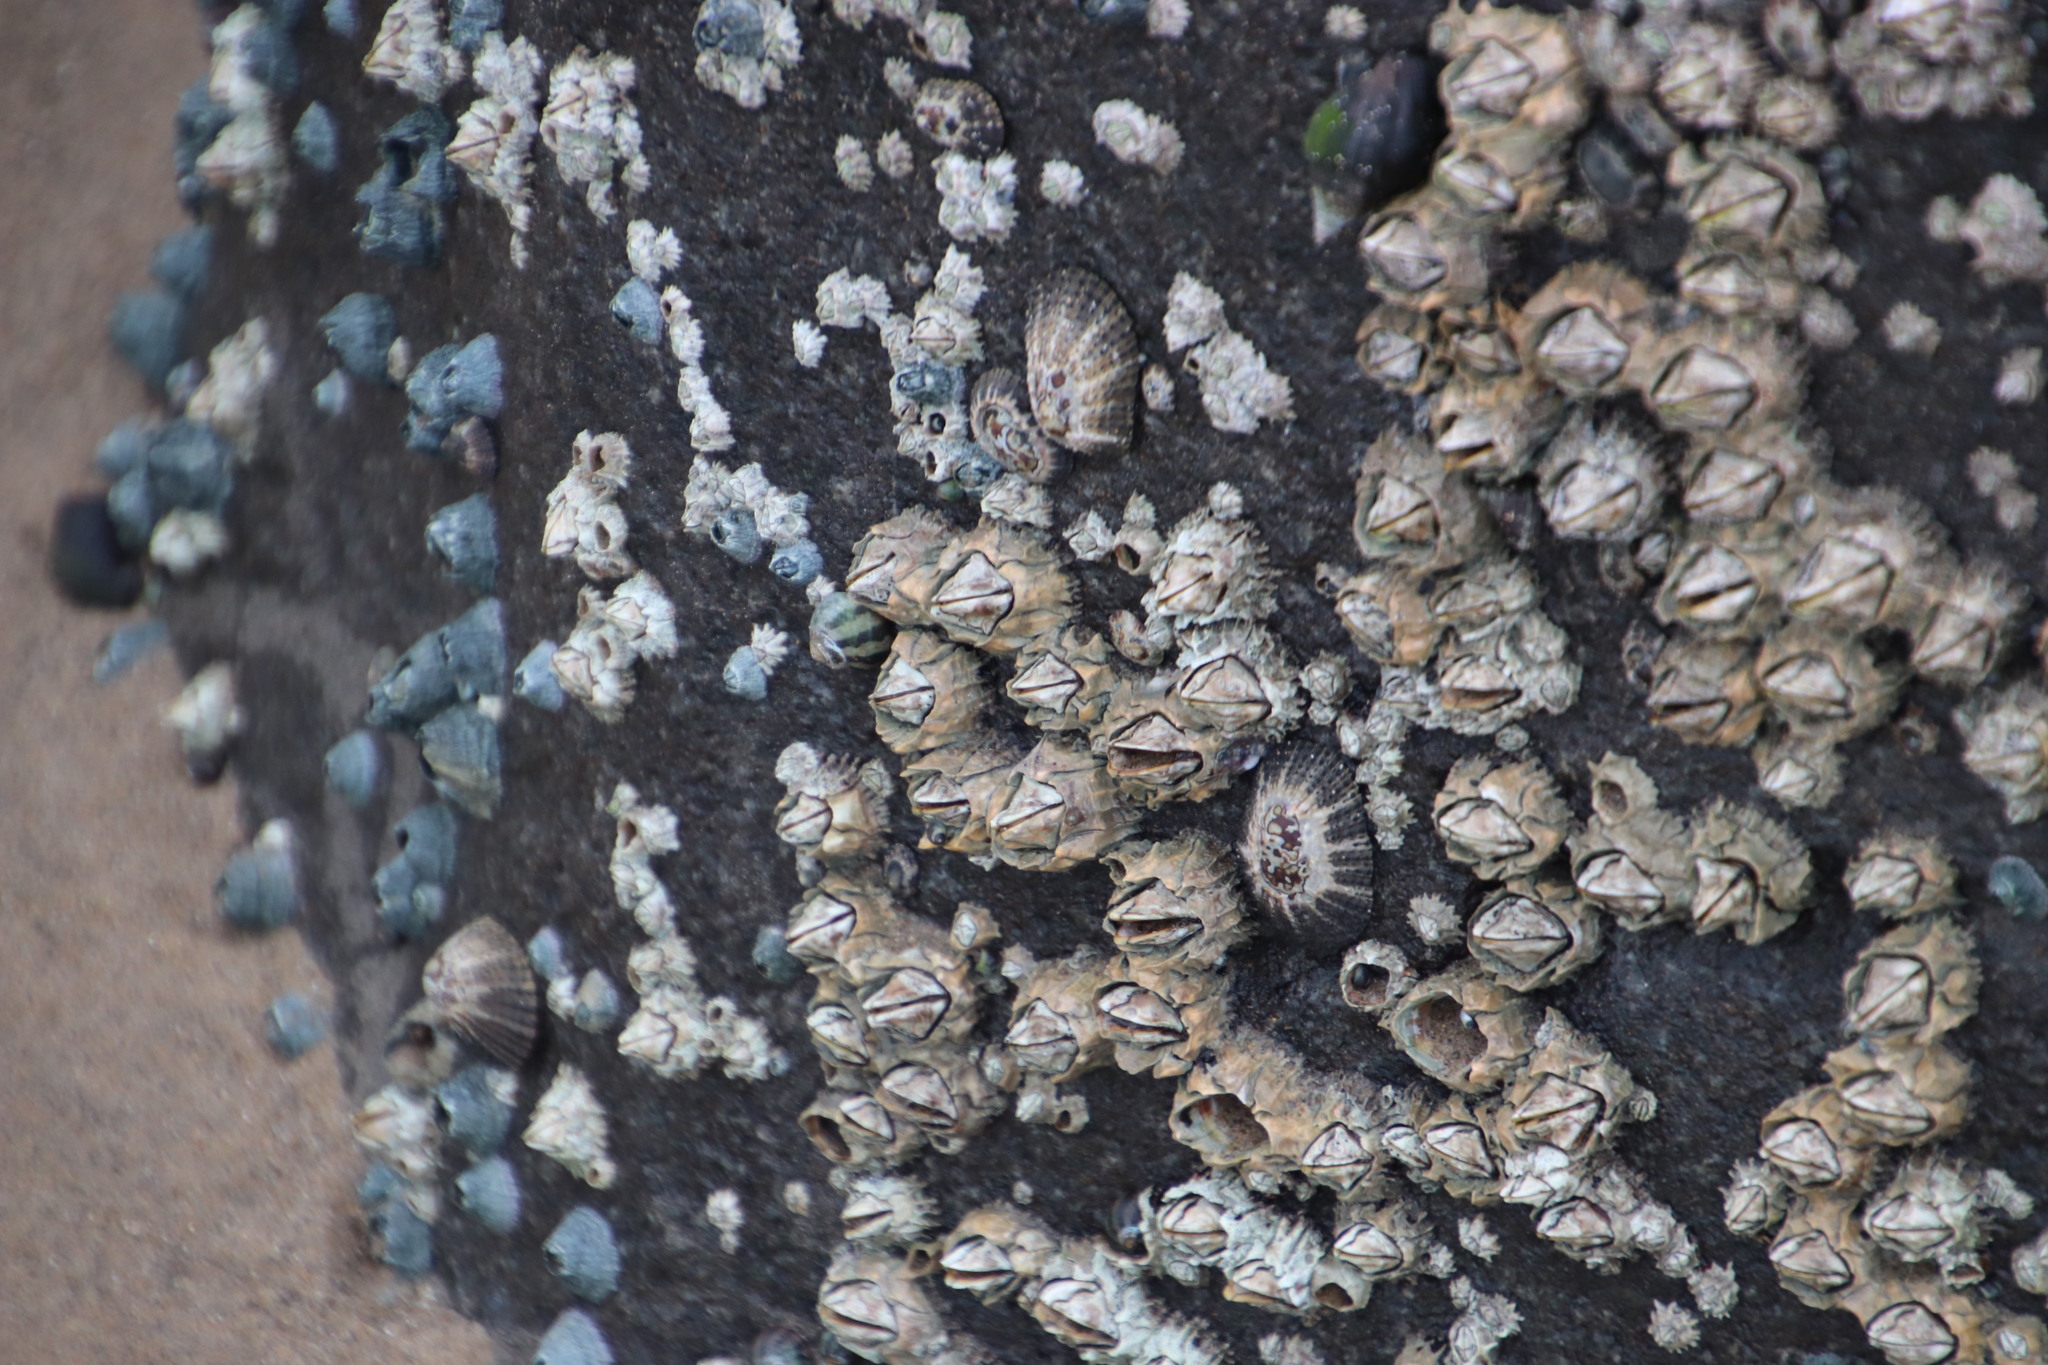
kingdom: Animalia
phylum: Mollusca
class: Gastropoda
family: Patellidae
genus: Scutellastra
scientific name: Scutellastra natalensis
